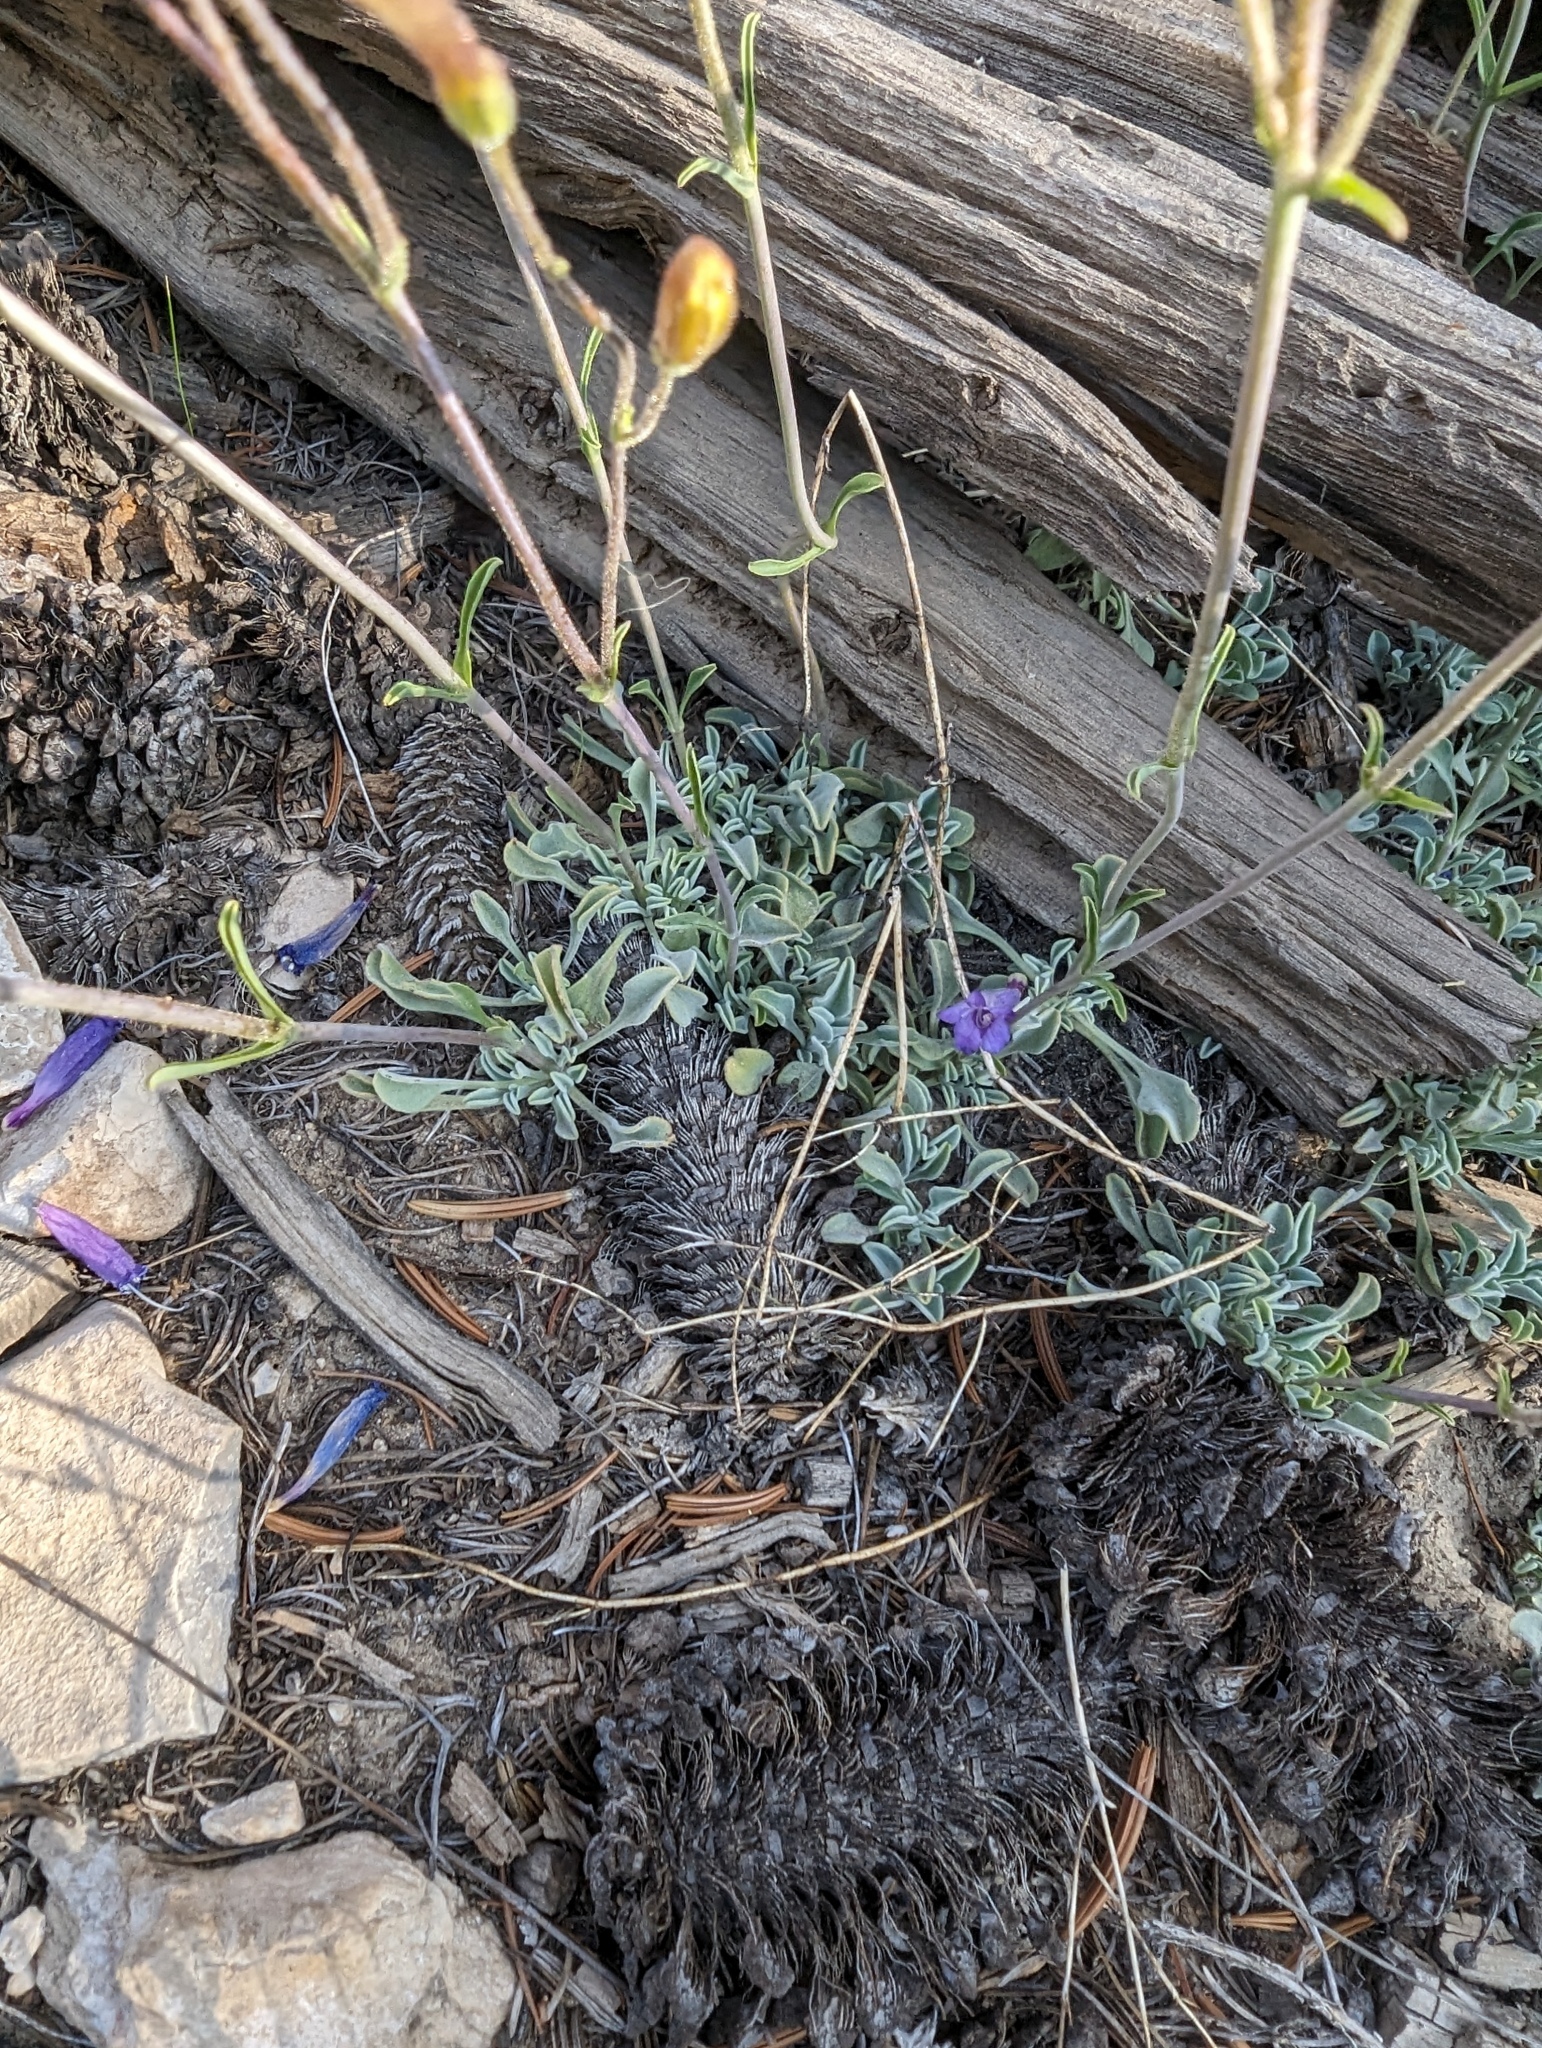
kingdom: Plantae
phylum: Tracheophyta
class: Magnoliopsida
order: Lamiales
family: Plantaginaceae
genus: Penstemon
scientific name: Penstemon scapoides
